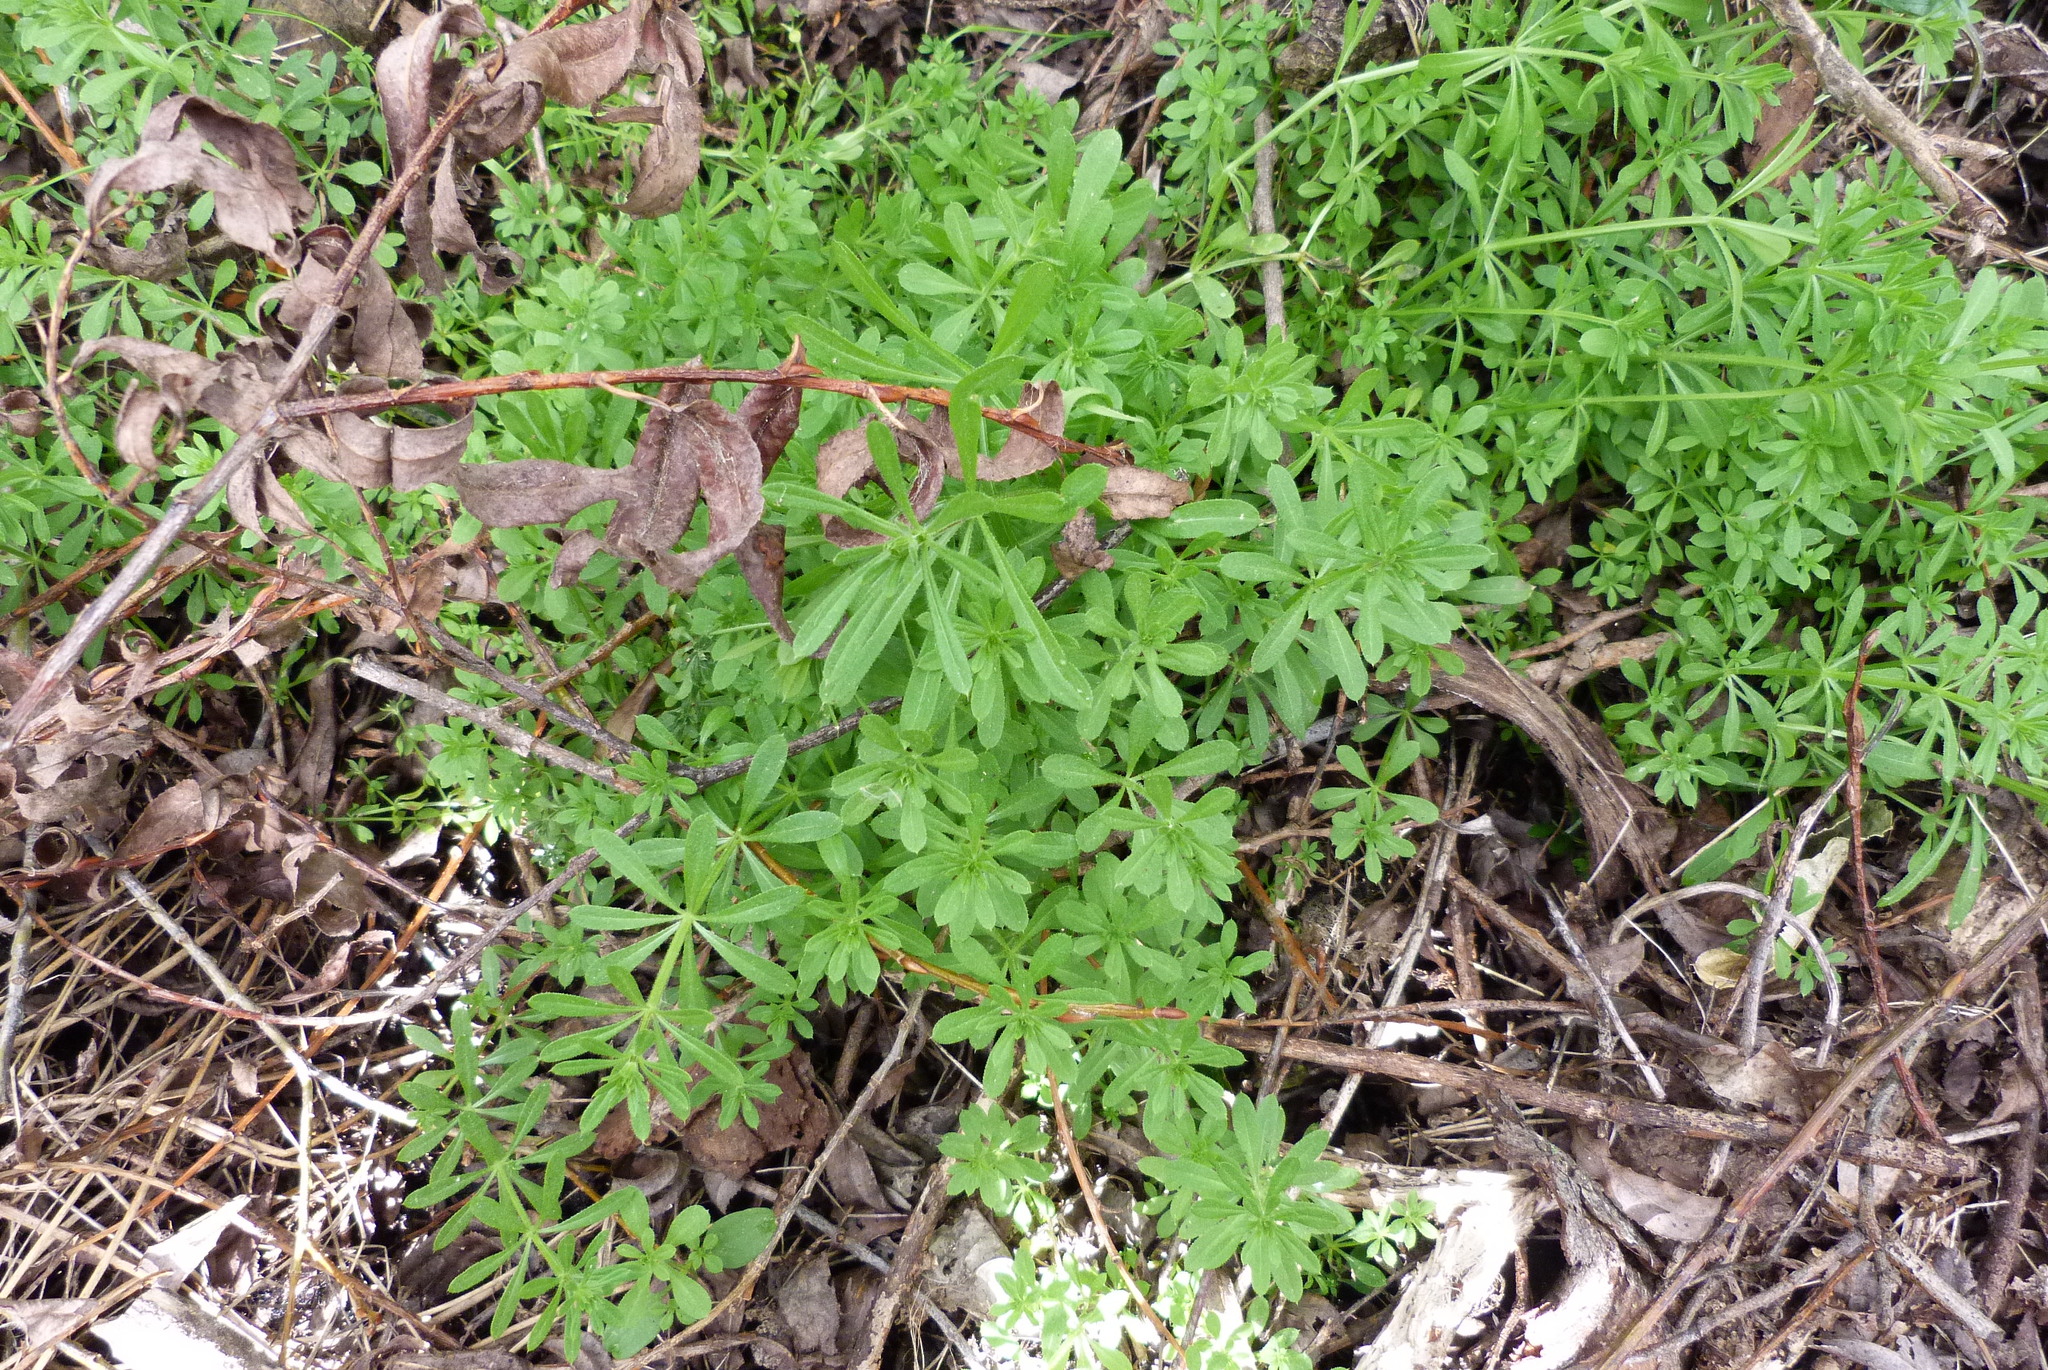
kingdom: Plantae
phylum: Tracheophyta
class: Magnoliopsida
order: Gentianales
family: Rubiaceae
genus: Galium
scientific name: Galium aparine
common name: Cleavers
